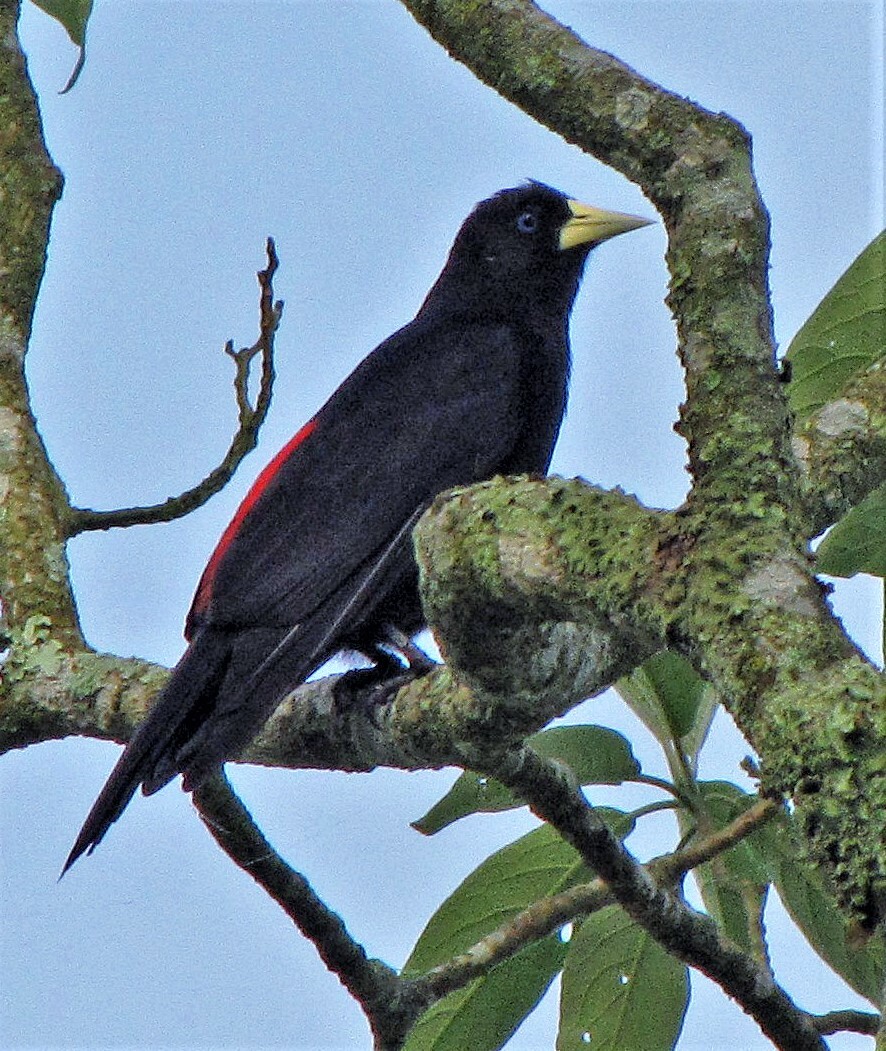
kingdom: Animalia
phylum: Chordata
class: Aves
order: Passeriformes
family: Icteridae
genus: Cacicus
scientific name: Cacicus haemorrhous
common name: Red-rumped cacique
